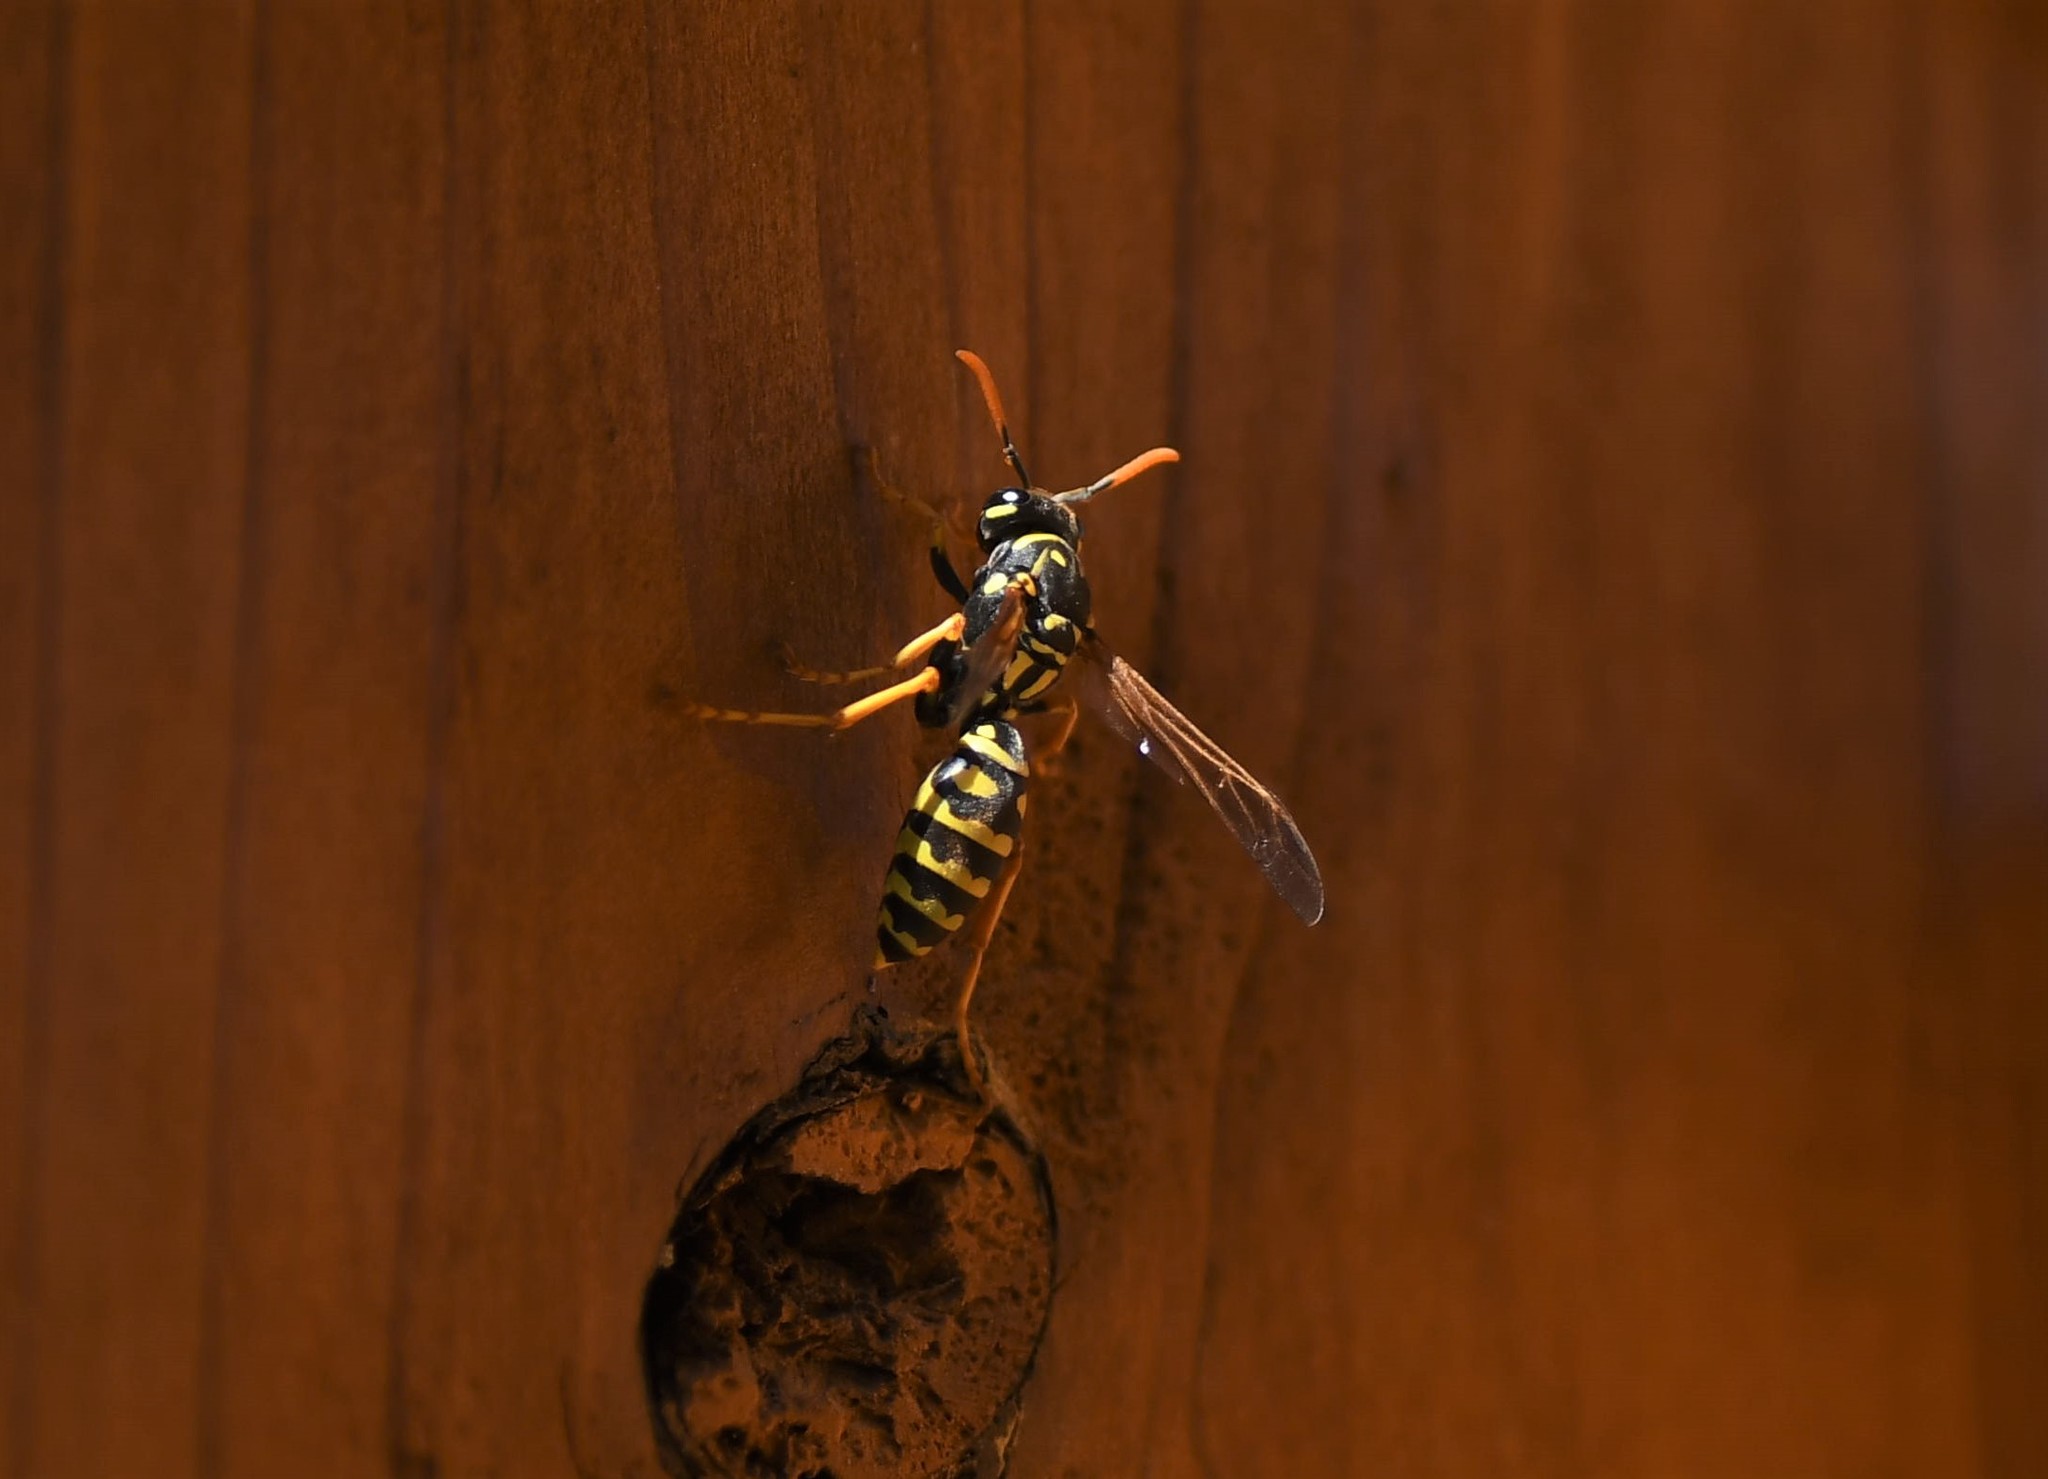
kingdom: Animalia
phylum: Arthropoda
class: Insecta
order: Hymenoptera
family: Eumenidae
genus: Polistes
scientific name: Polistes dominula
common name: Paper wasp
